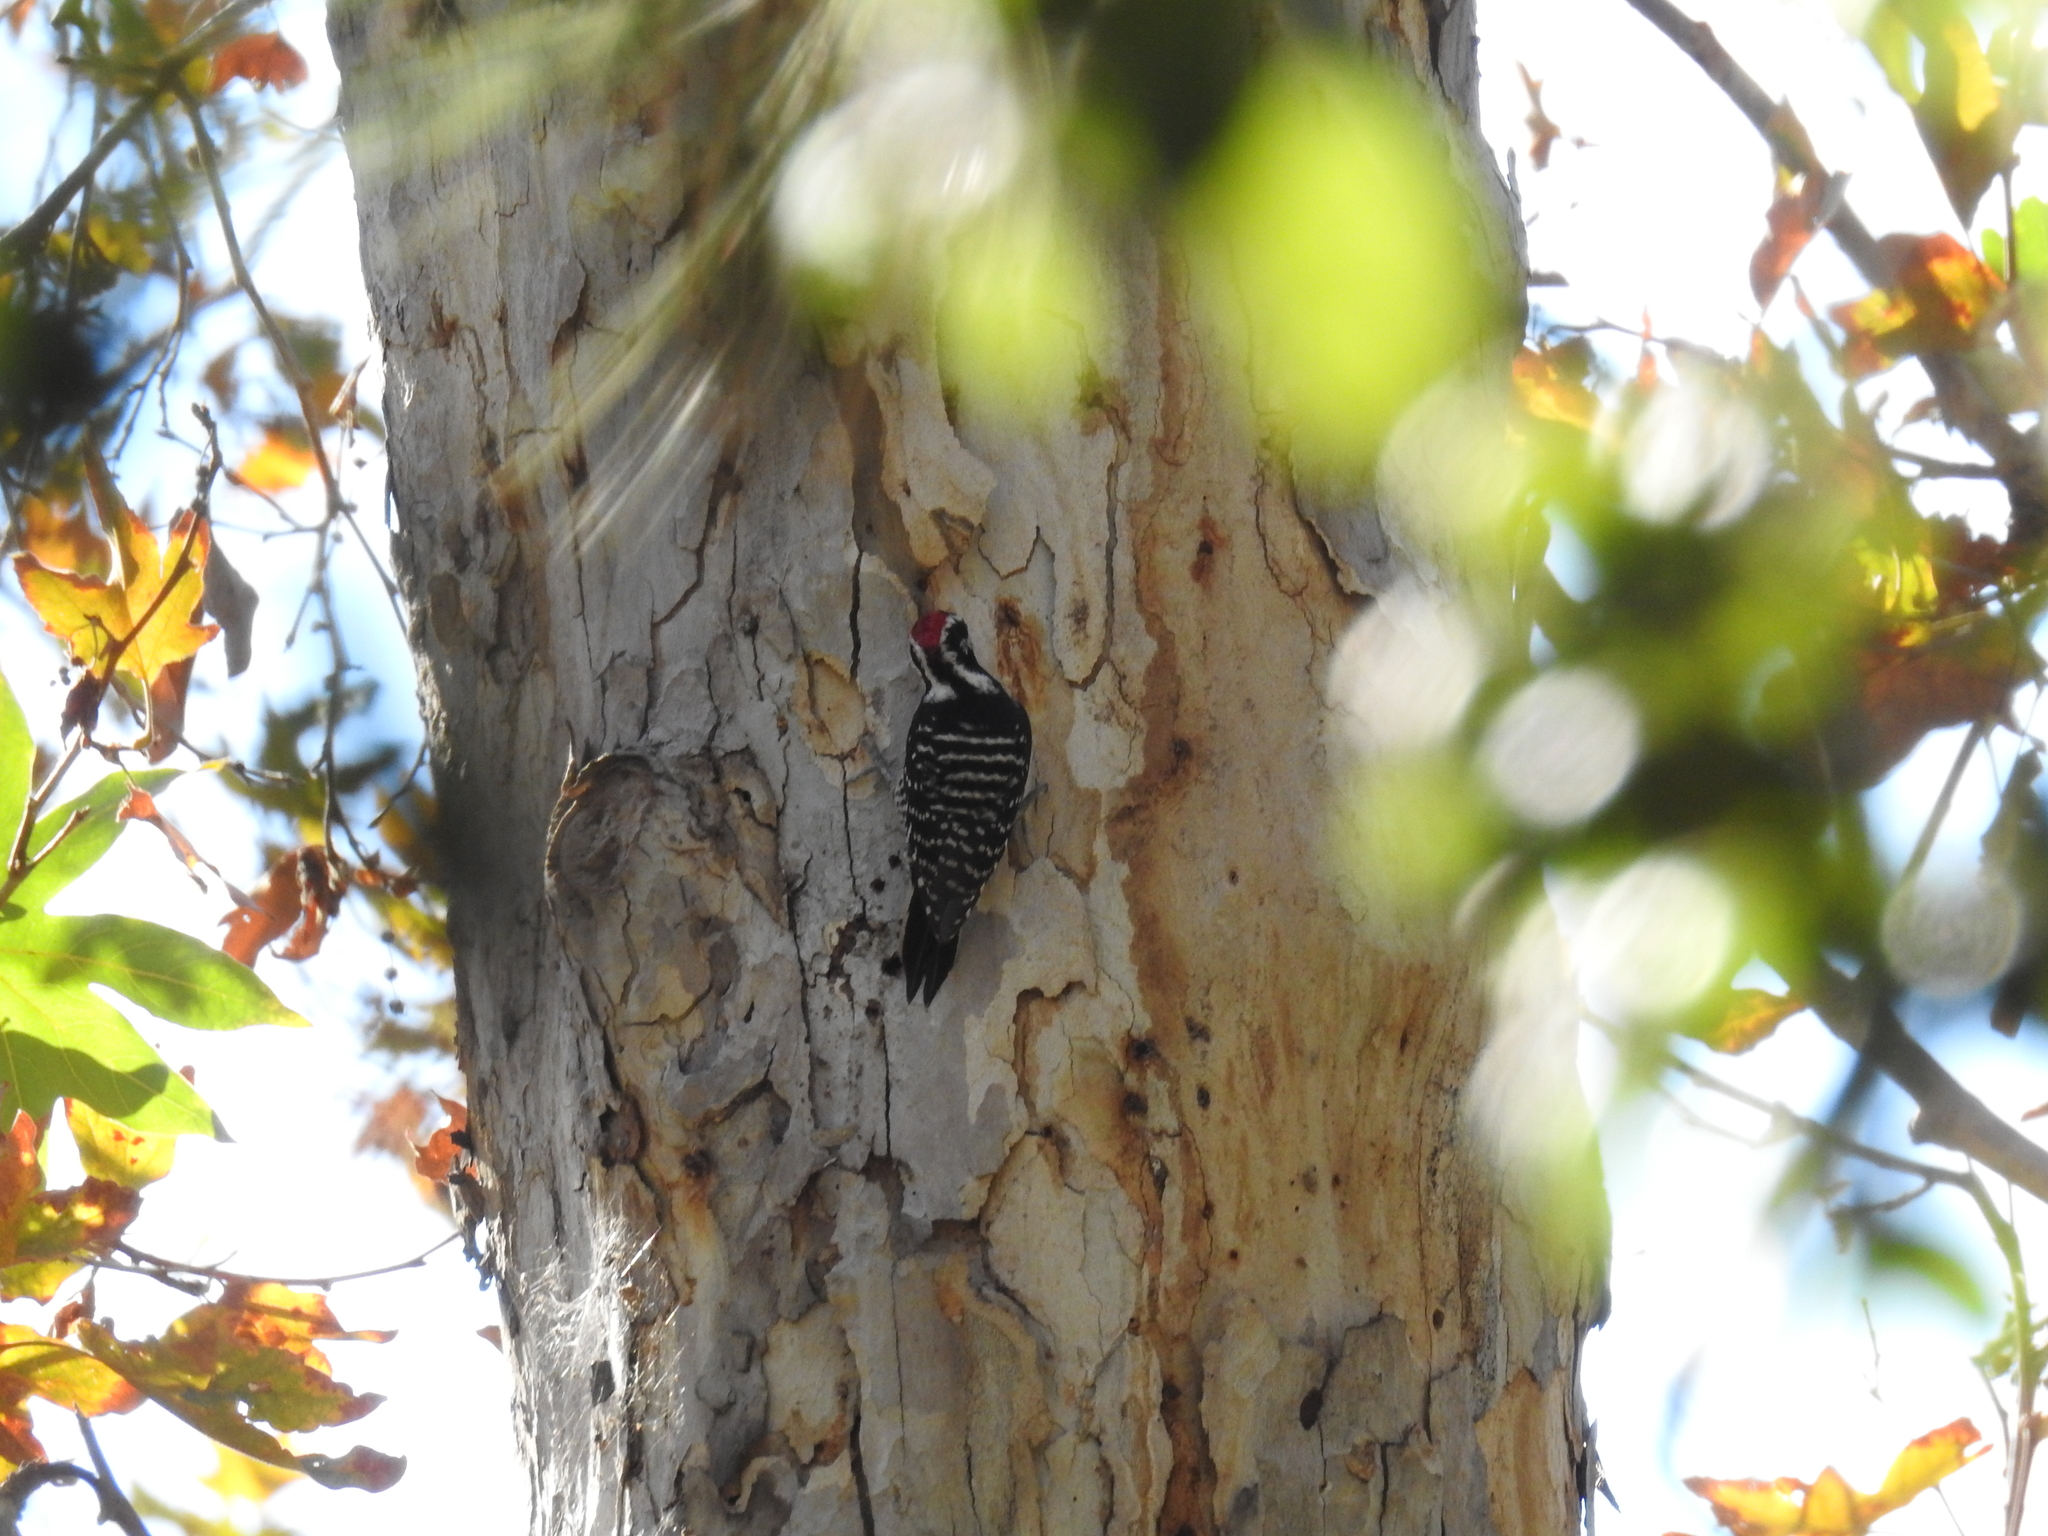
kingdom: Animalia
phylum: Chordata
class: Aves
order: Piciformes
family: Picidae
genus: Dryobates
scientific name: Dryobates nuttallii
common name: Nuttall's woodpecker
